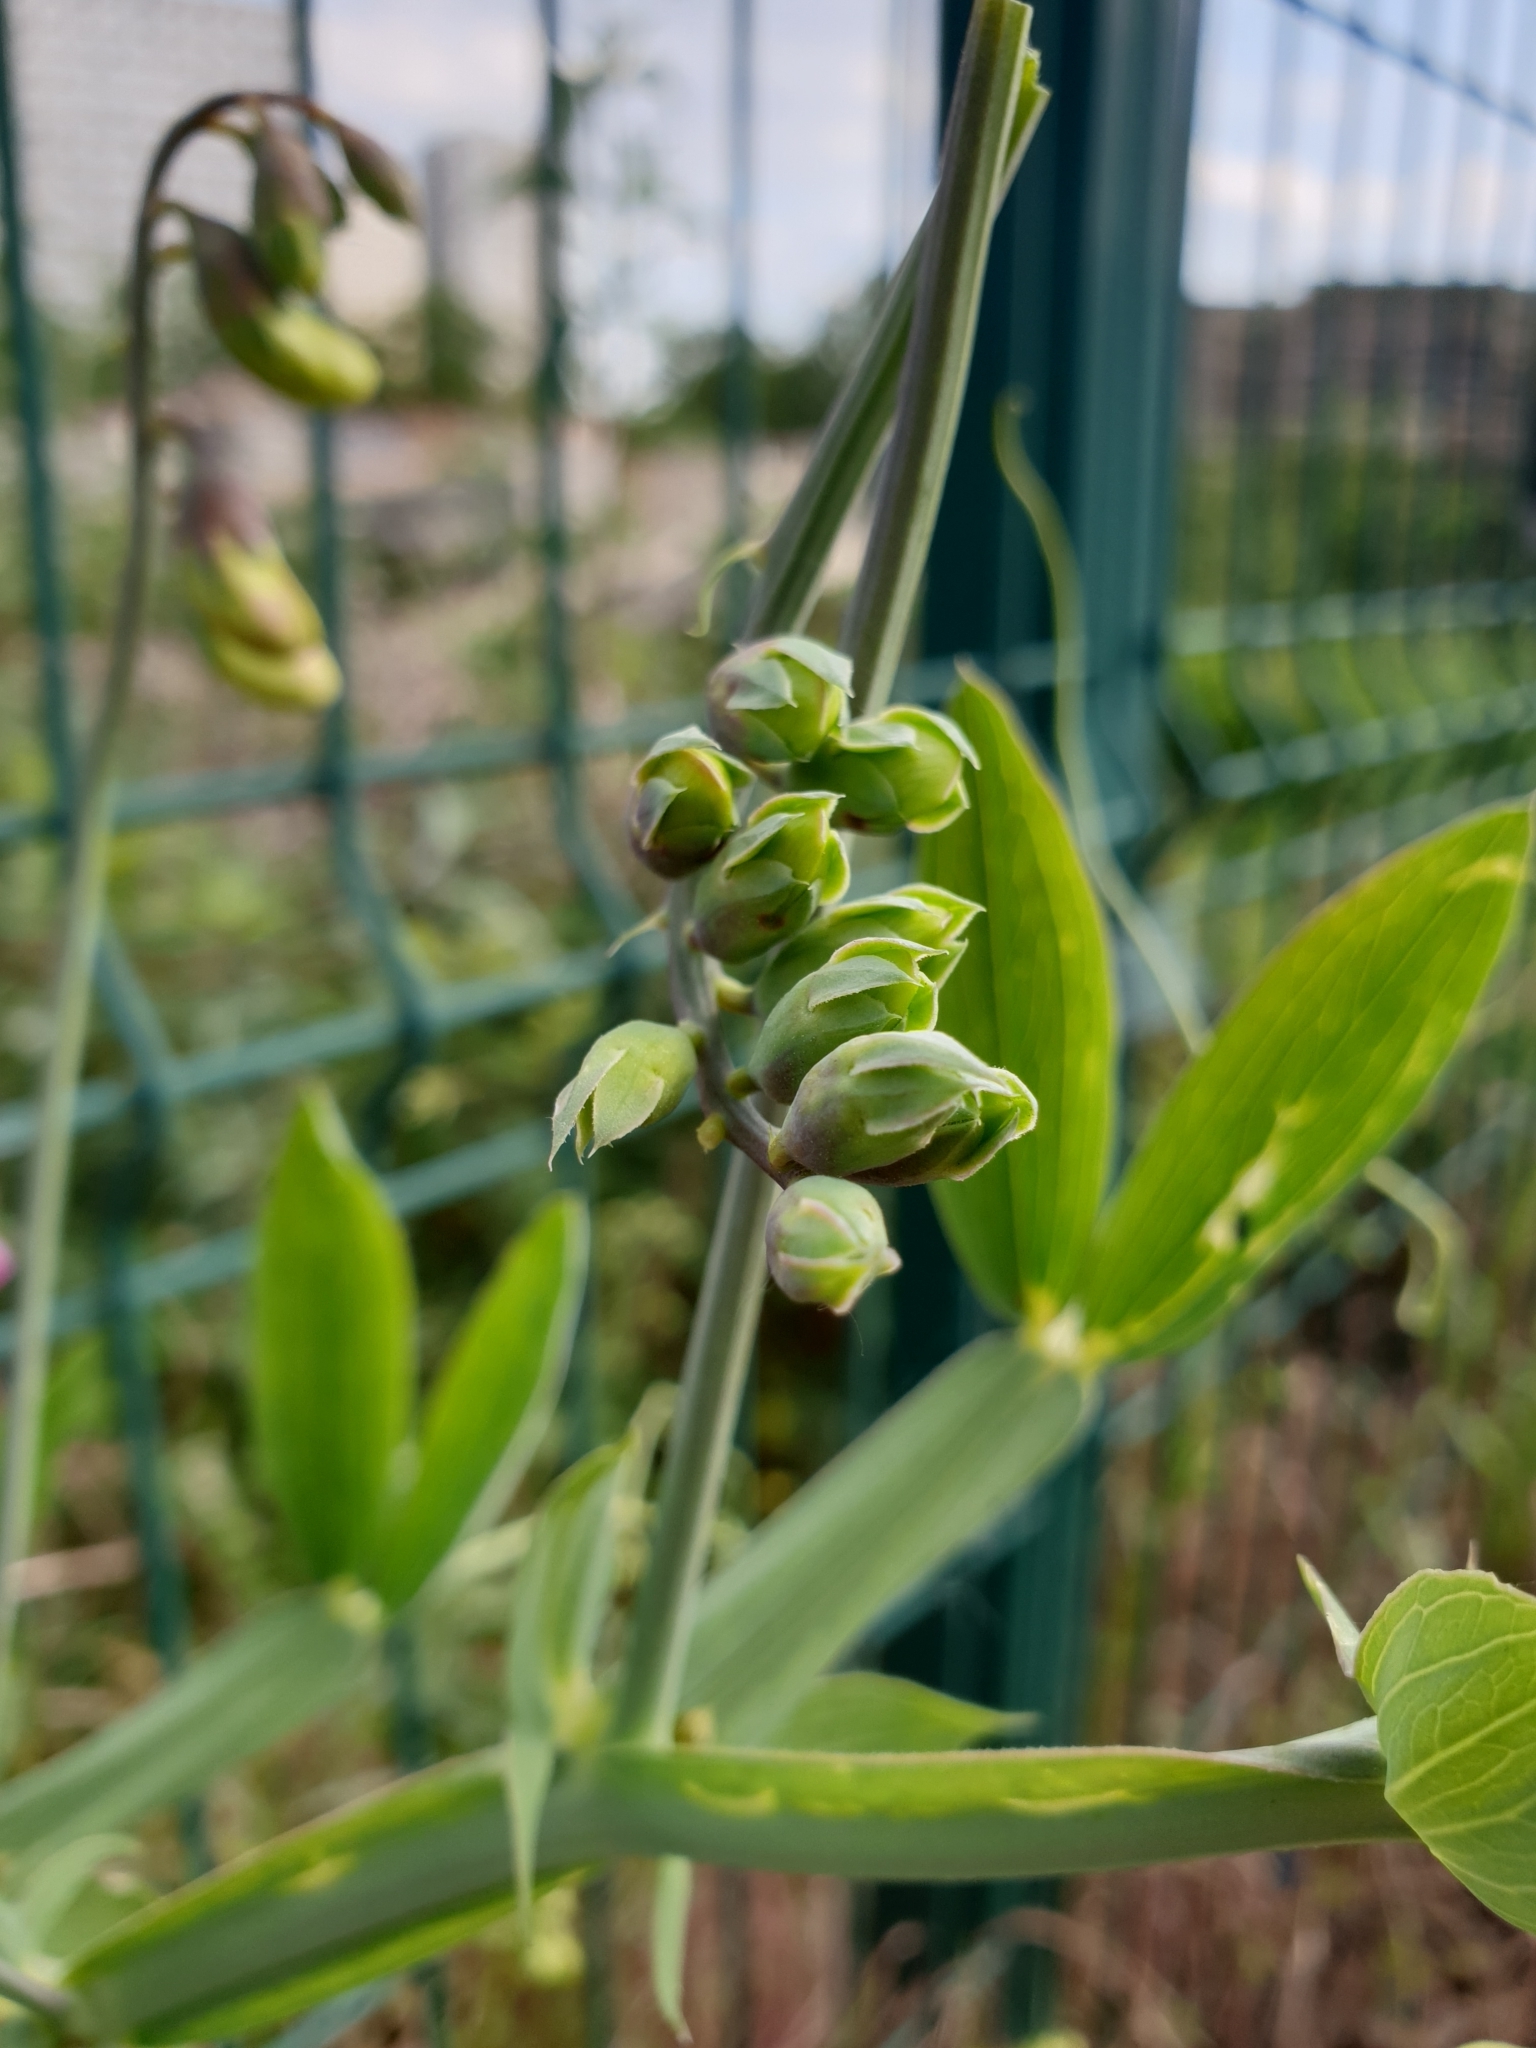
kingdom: Plantae
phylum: Tracheophyta
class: Magnoliopsida
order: Fabales
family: Fabaceae
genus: Lathyrus
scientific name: Lathyrus latifolius
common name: Perennial pea
